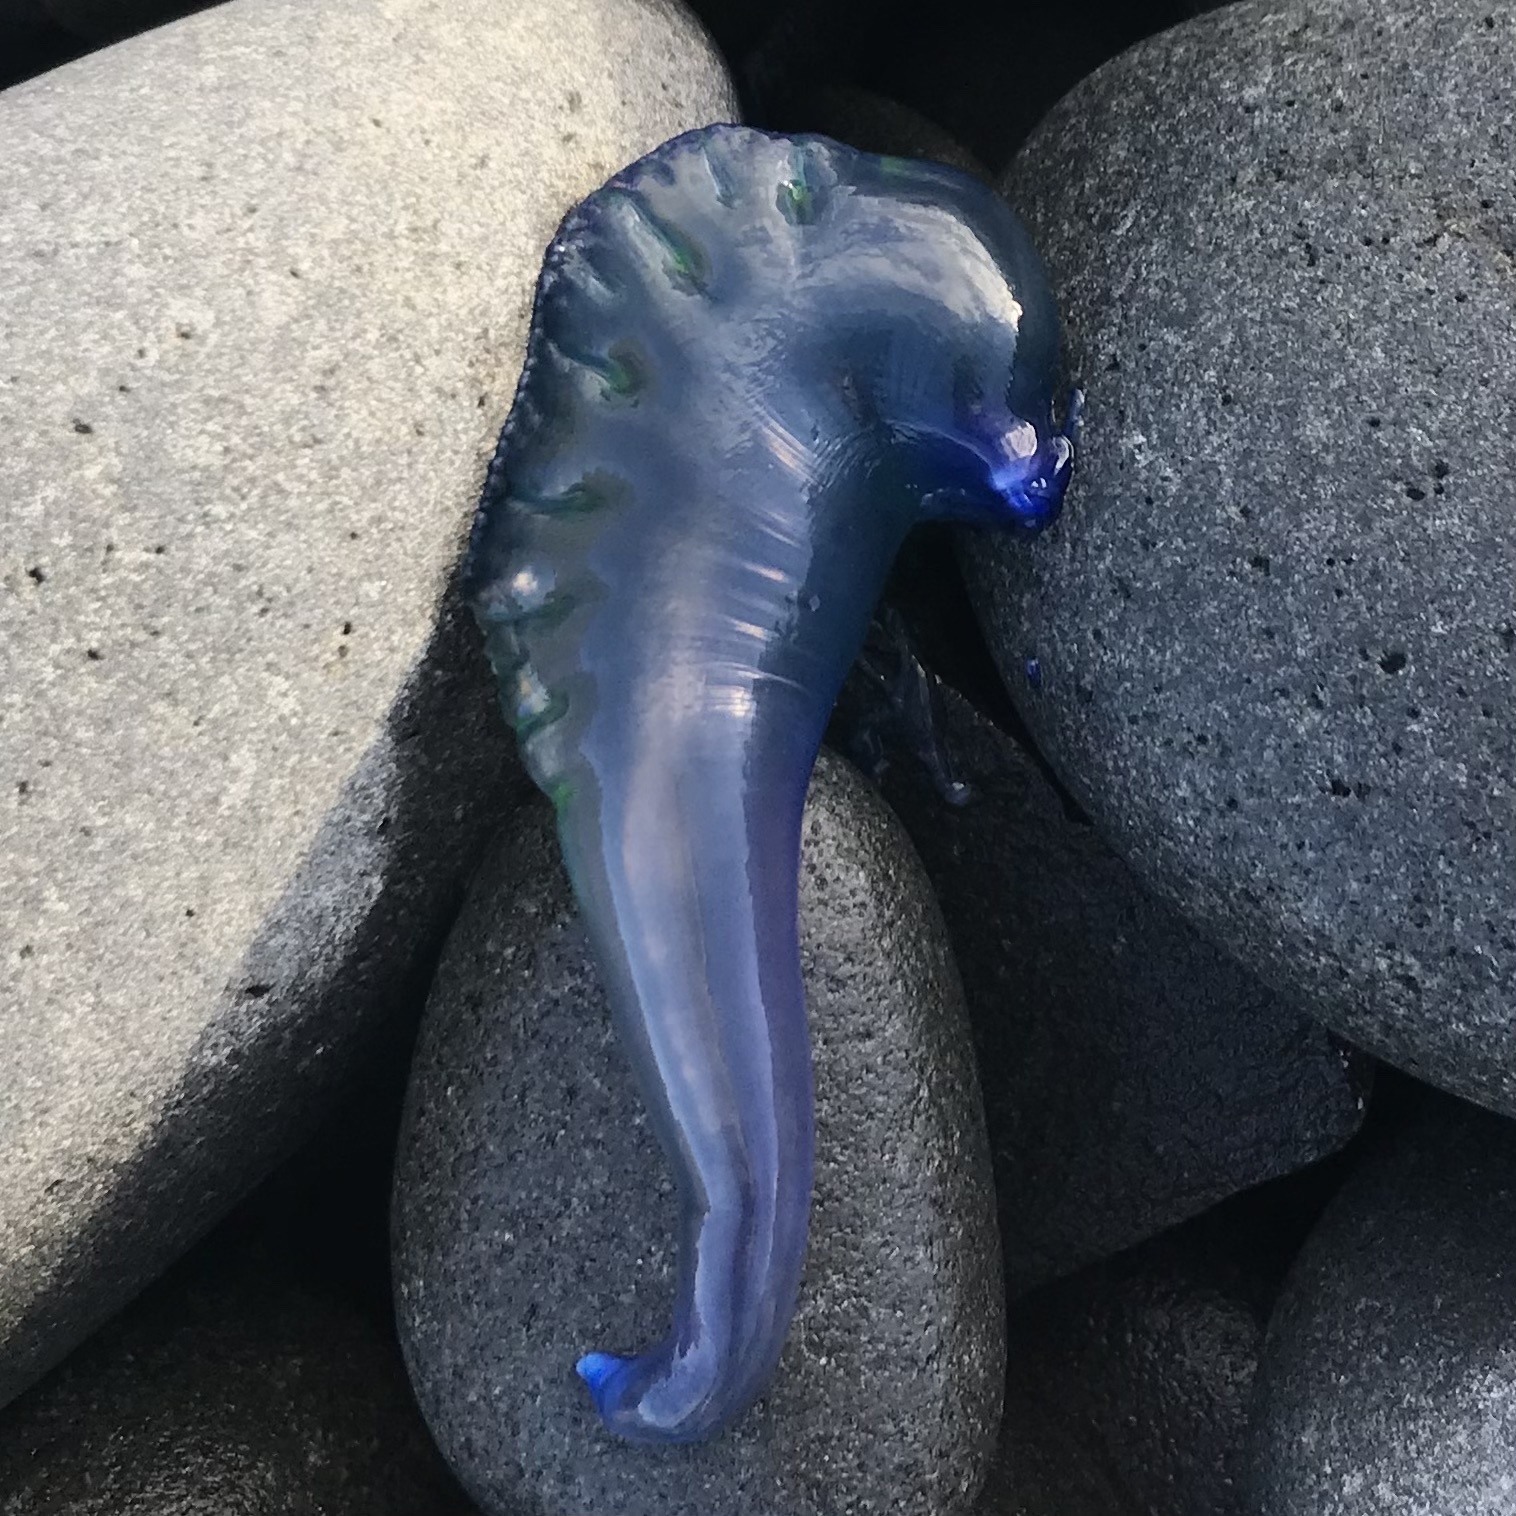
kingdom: Animalia
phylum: Cnidaria
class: Hydrozoa
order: Siphonophorae
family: Physaliidae
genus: Physalia
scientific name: Physalia physalis
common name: Portuguese man-of-war
